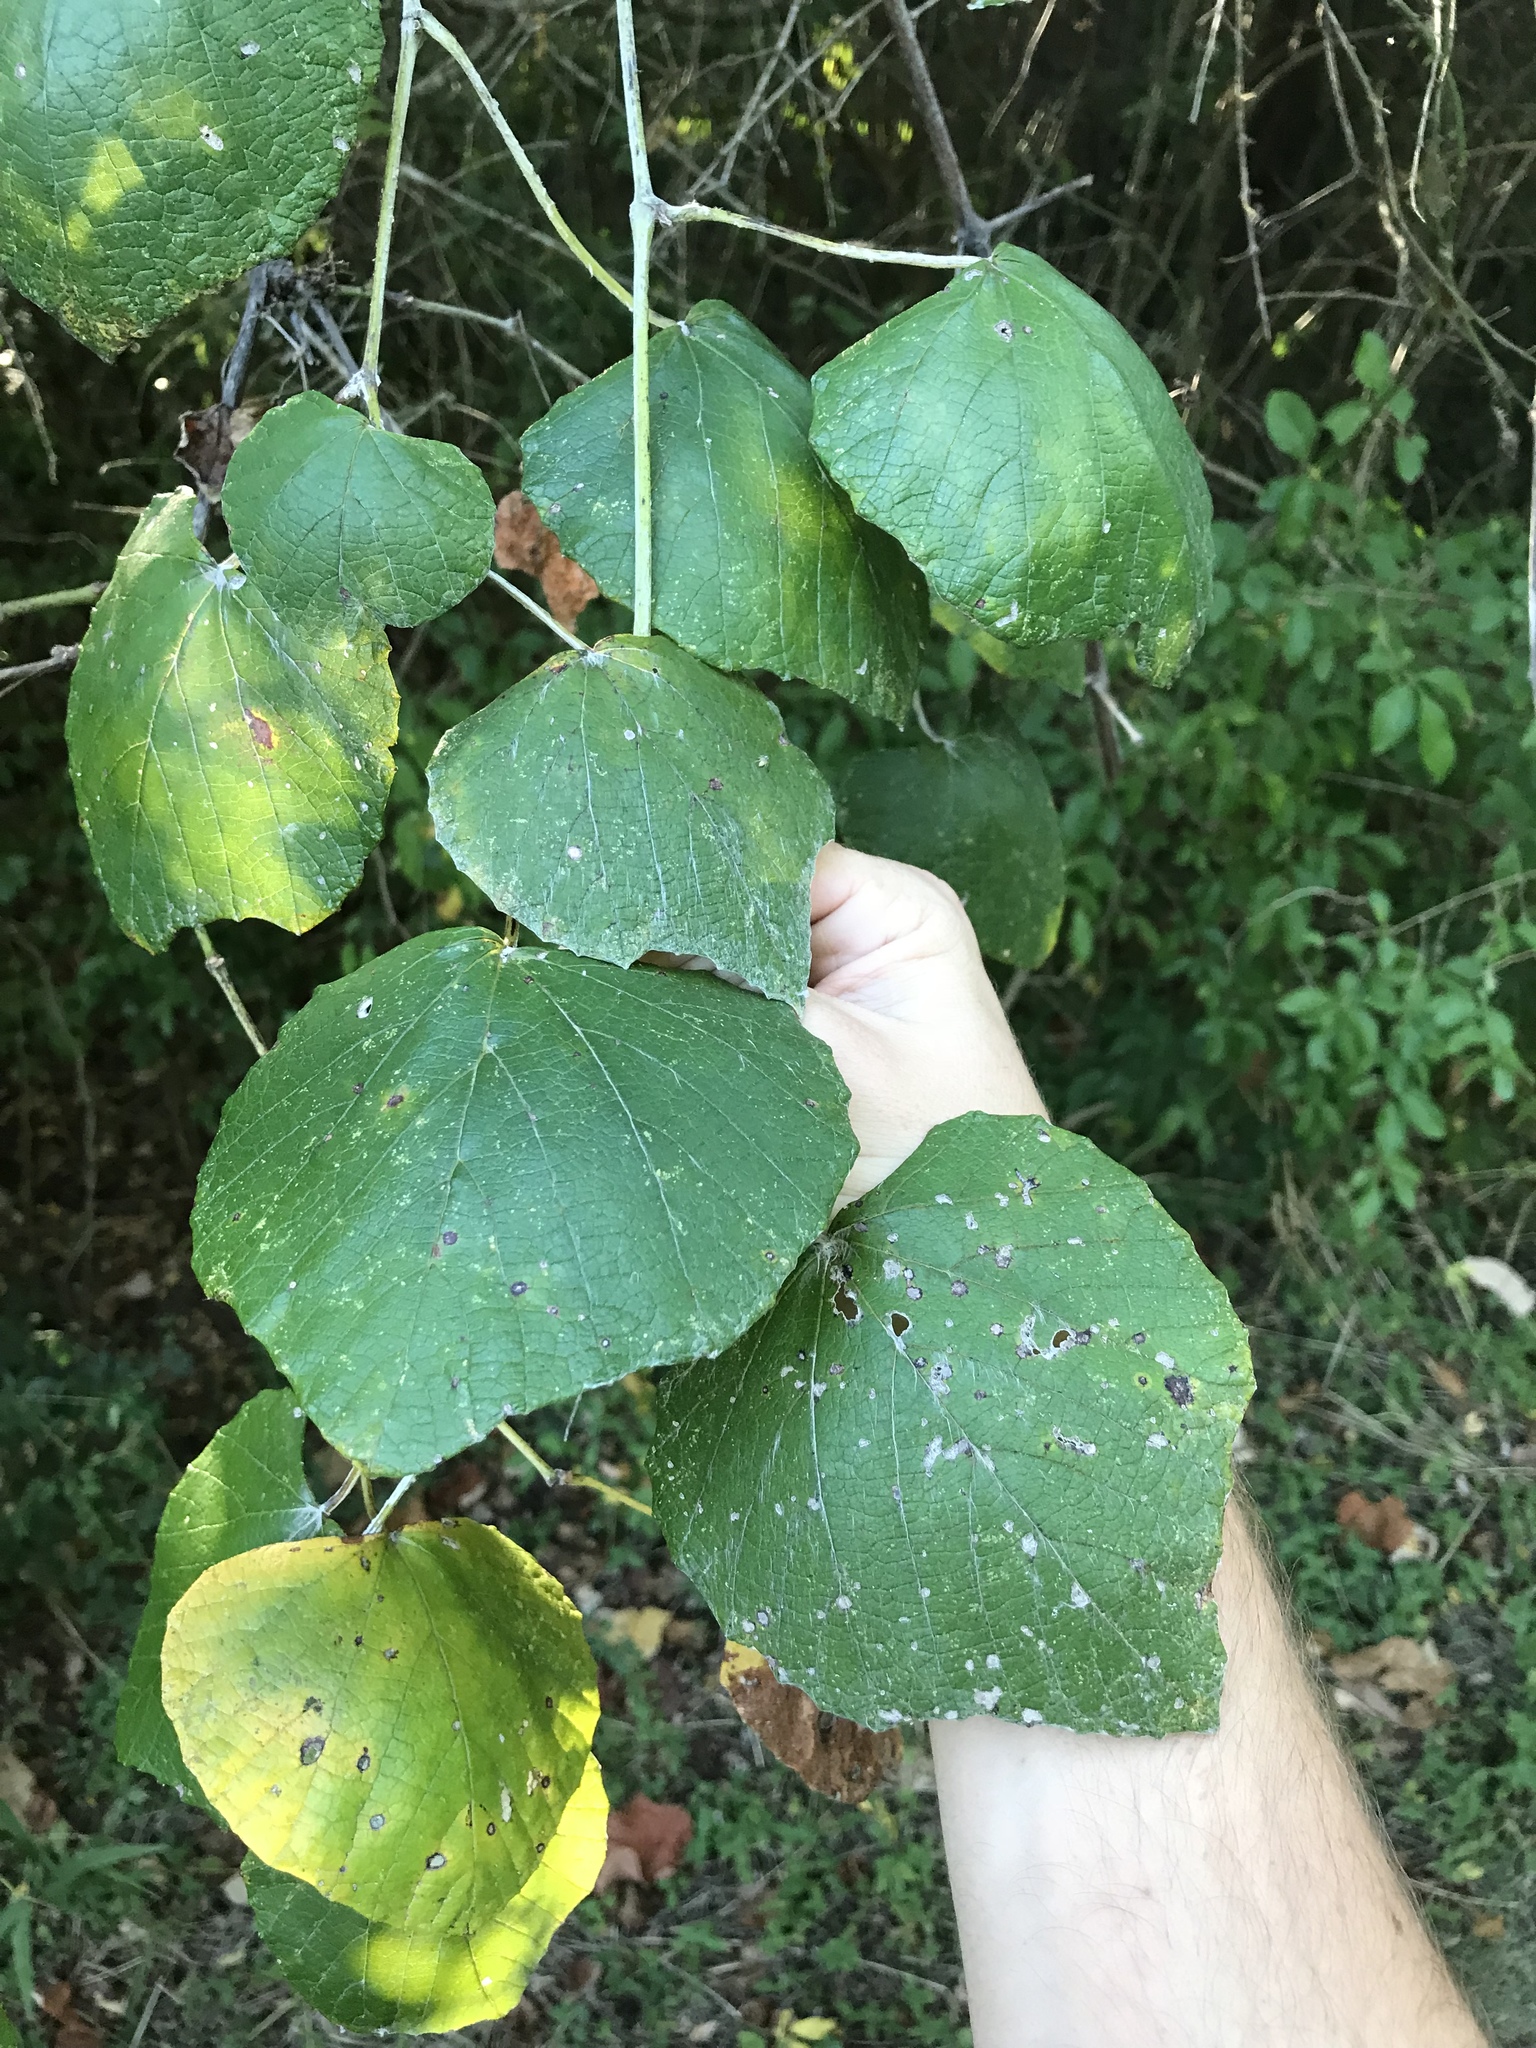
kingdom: Plantae
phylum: Tracheophyta
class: Magnoliopsida
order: Vitales
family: Vitaceae
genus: Vitis
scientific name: Vitis mustangensis
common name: Mustang grape
